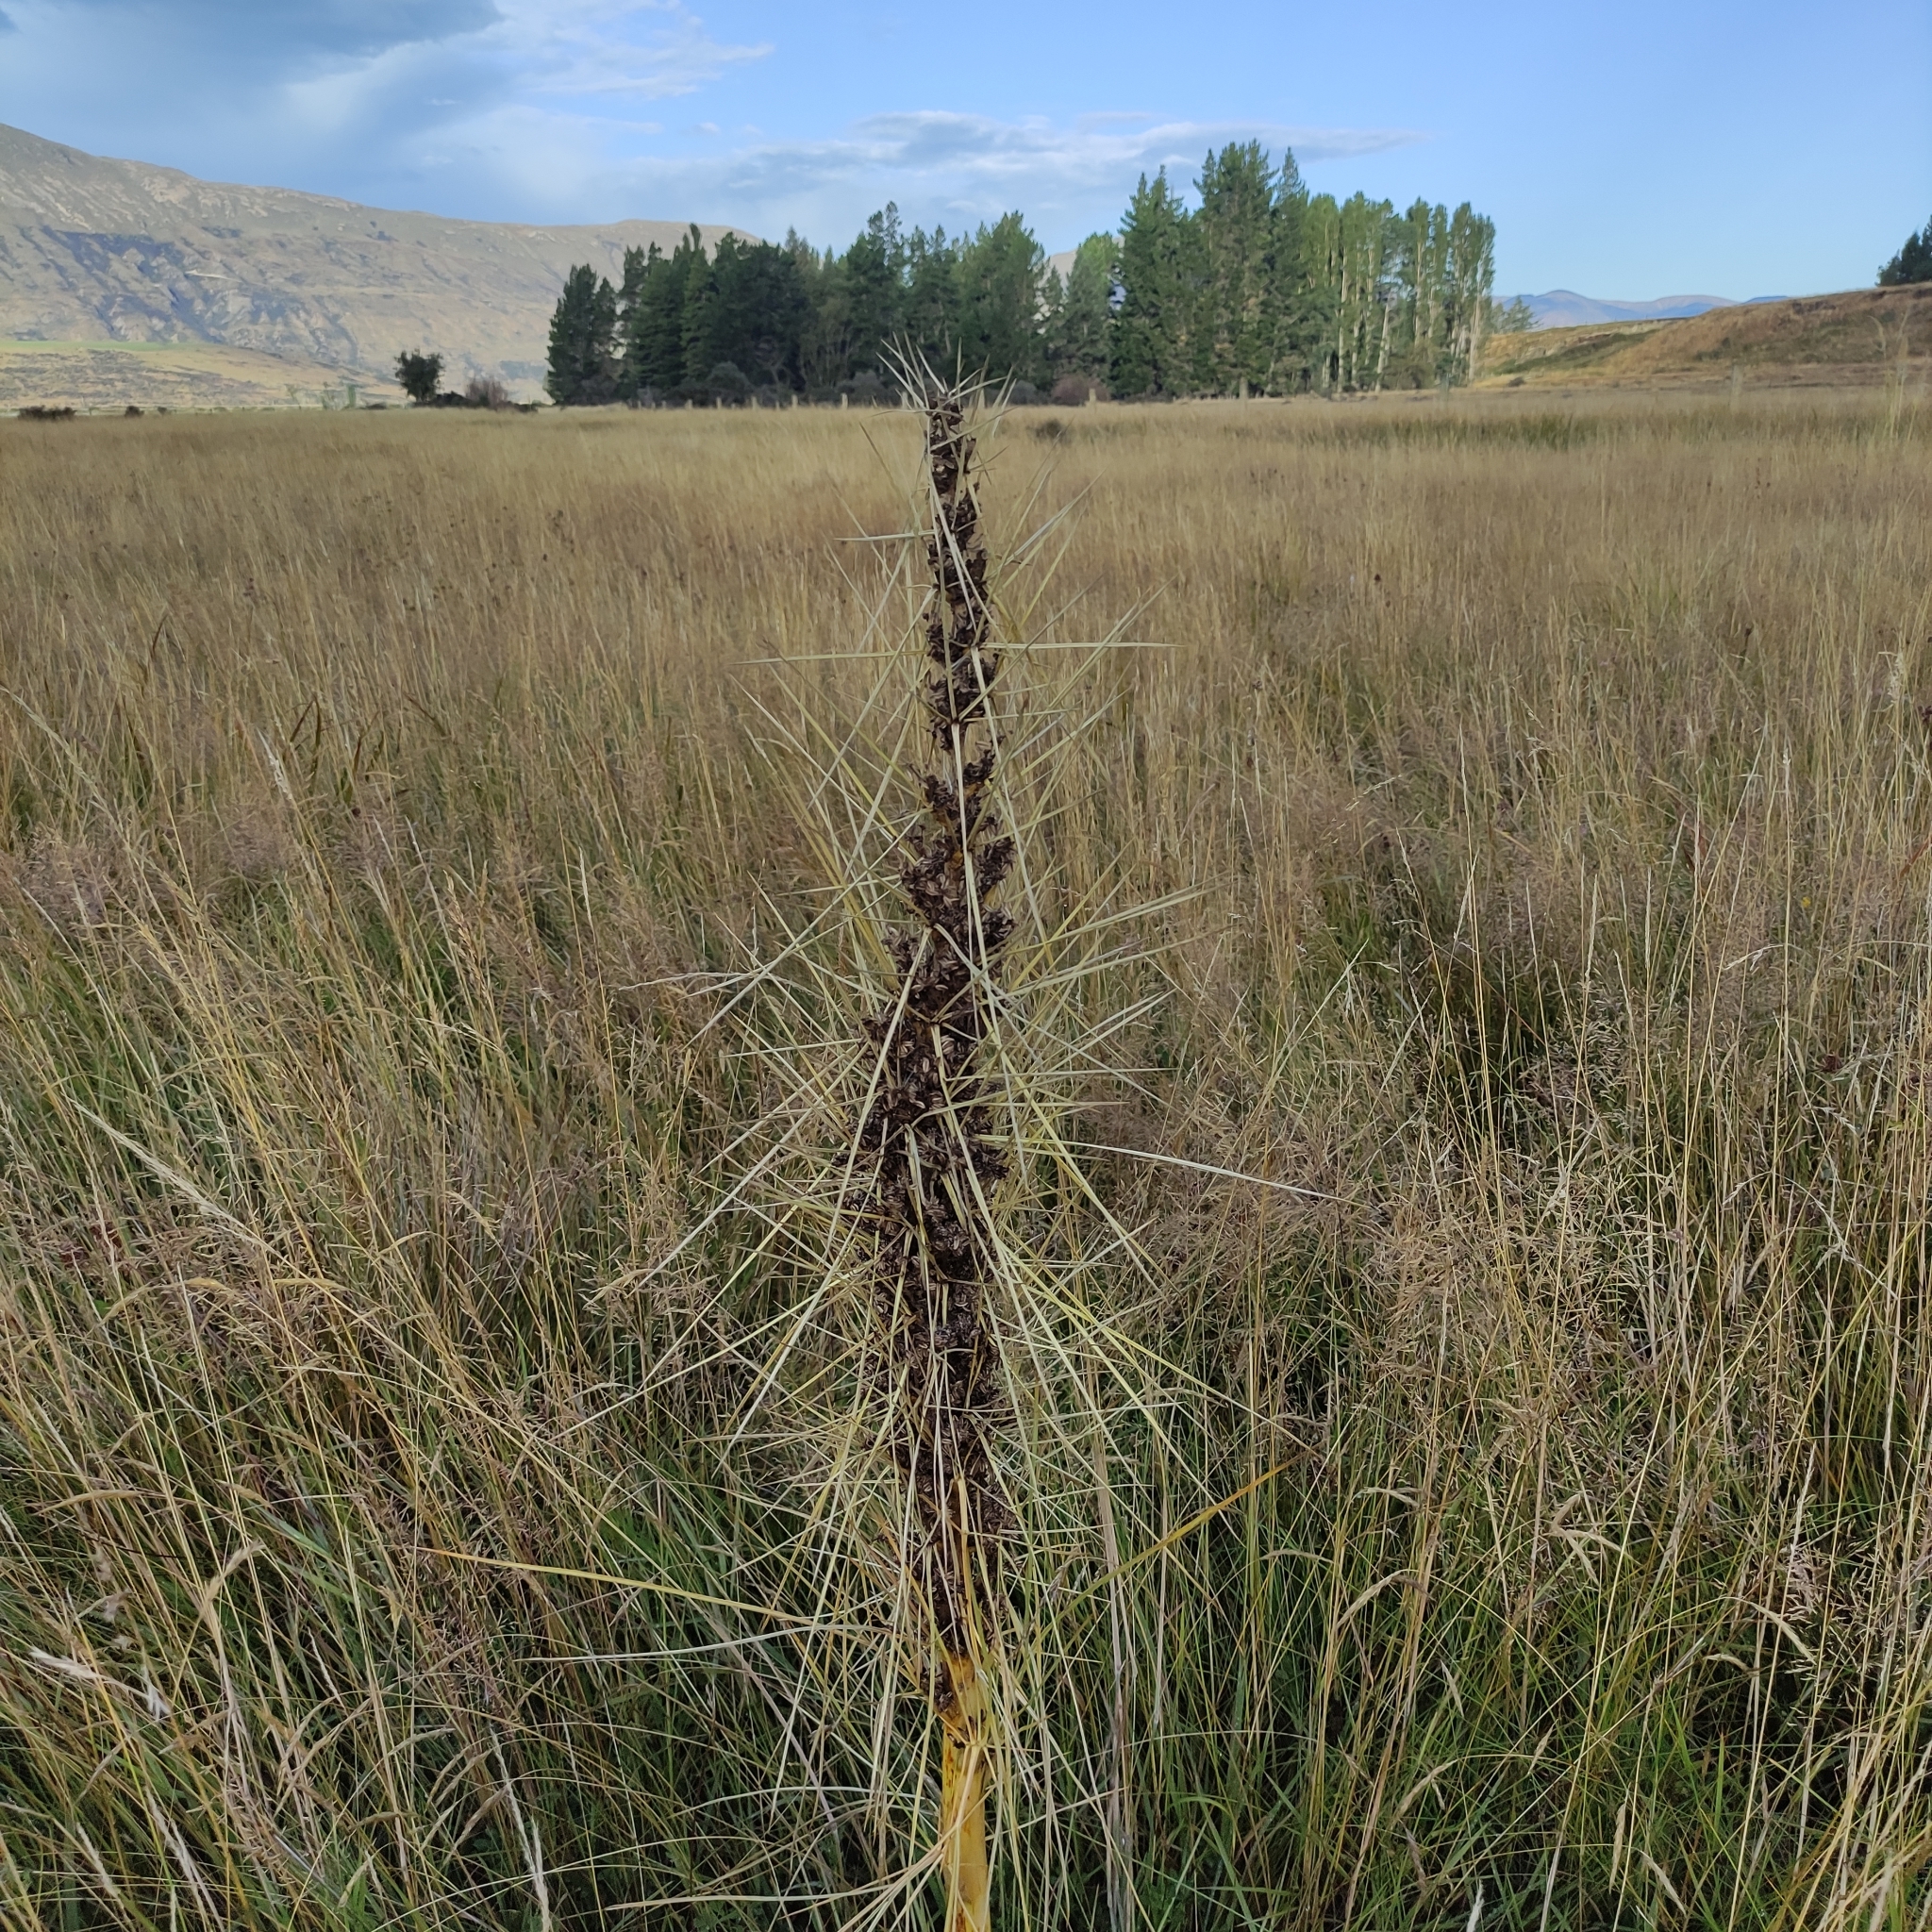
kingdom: Plantae
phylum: Tracheophyta
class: Magnoliopsida
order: Apiales
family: Apiaceae
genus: Aciphylla
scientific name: Aciphylla subflabellata
